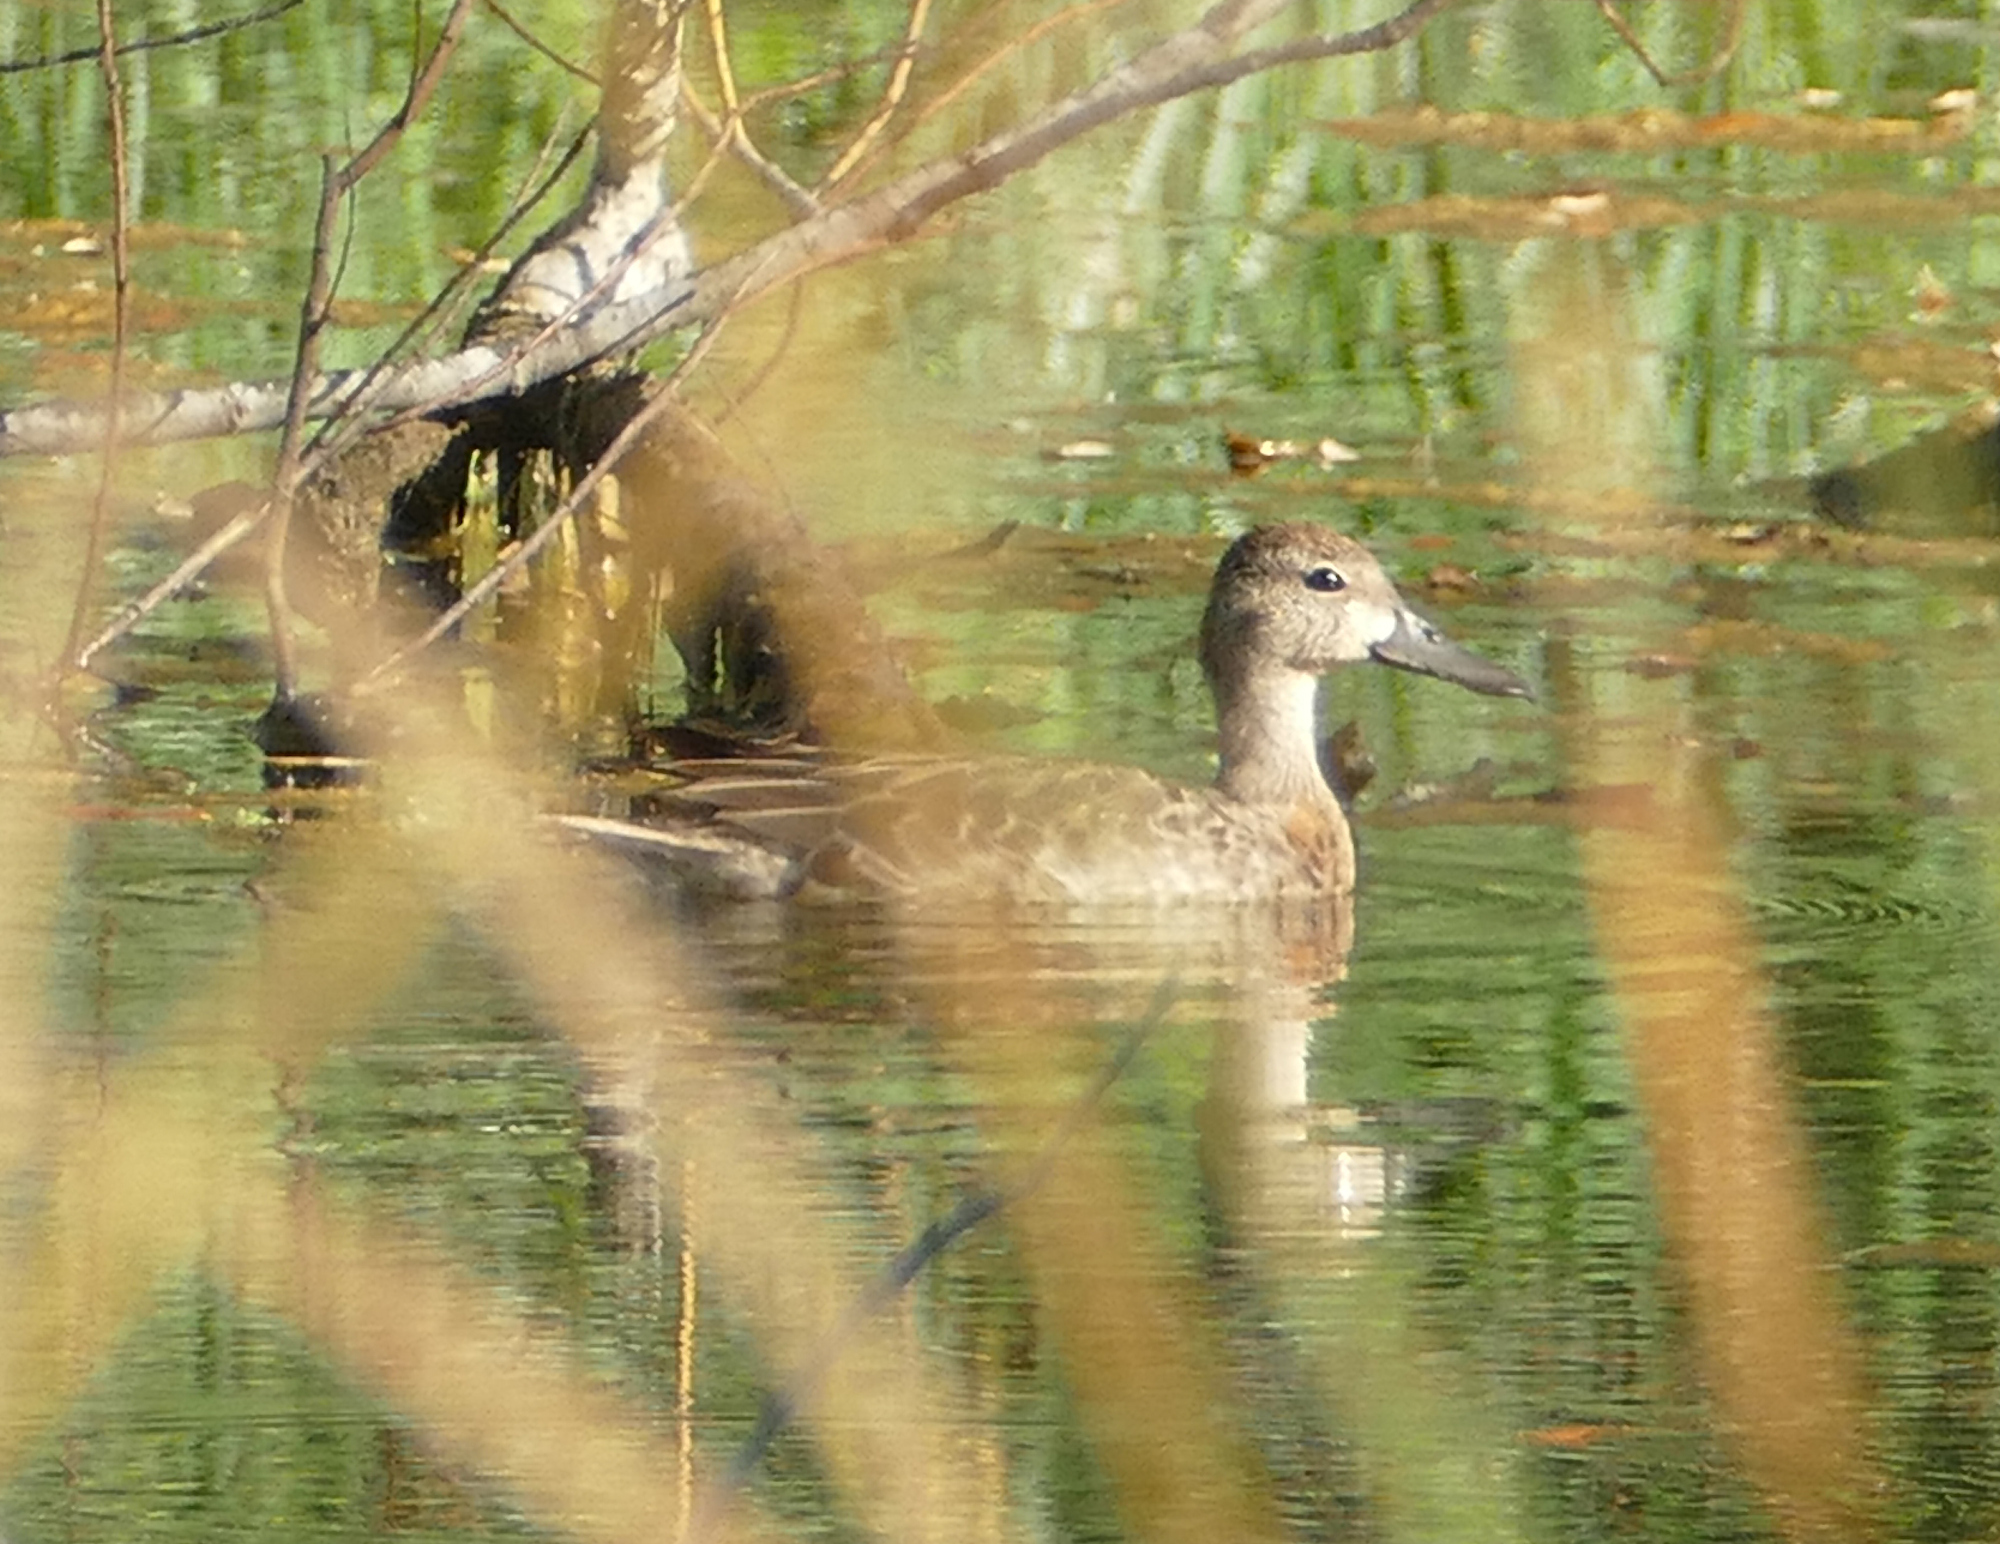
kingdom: Animalia
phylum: Chordata
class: Aves
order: Anseriformes
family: Anatidae
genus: Spatula
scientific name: Spatula discors
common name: Blue-winged teal
